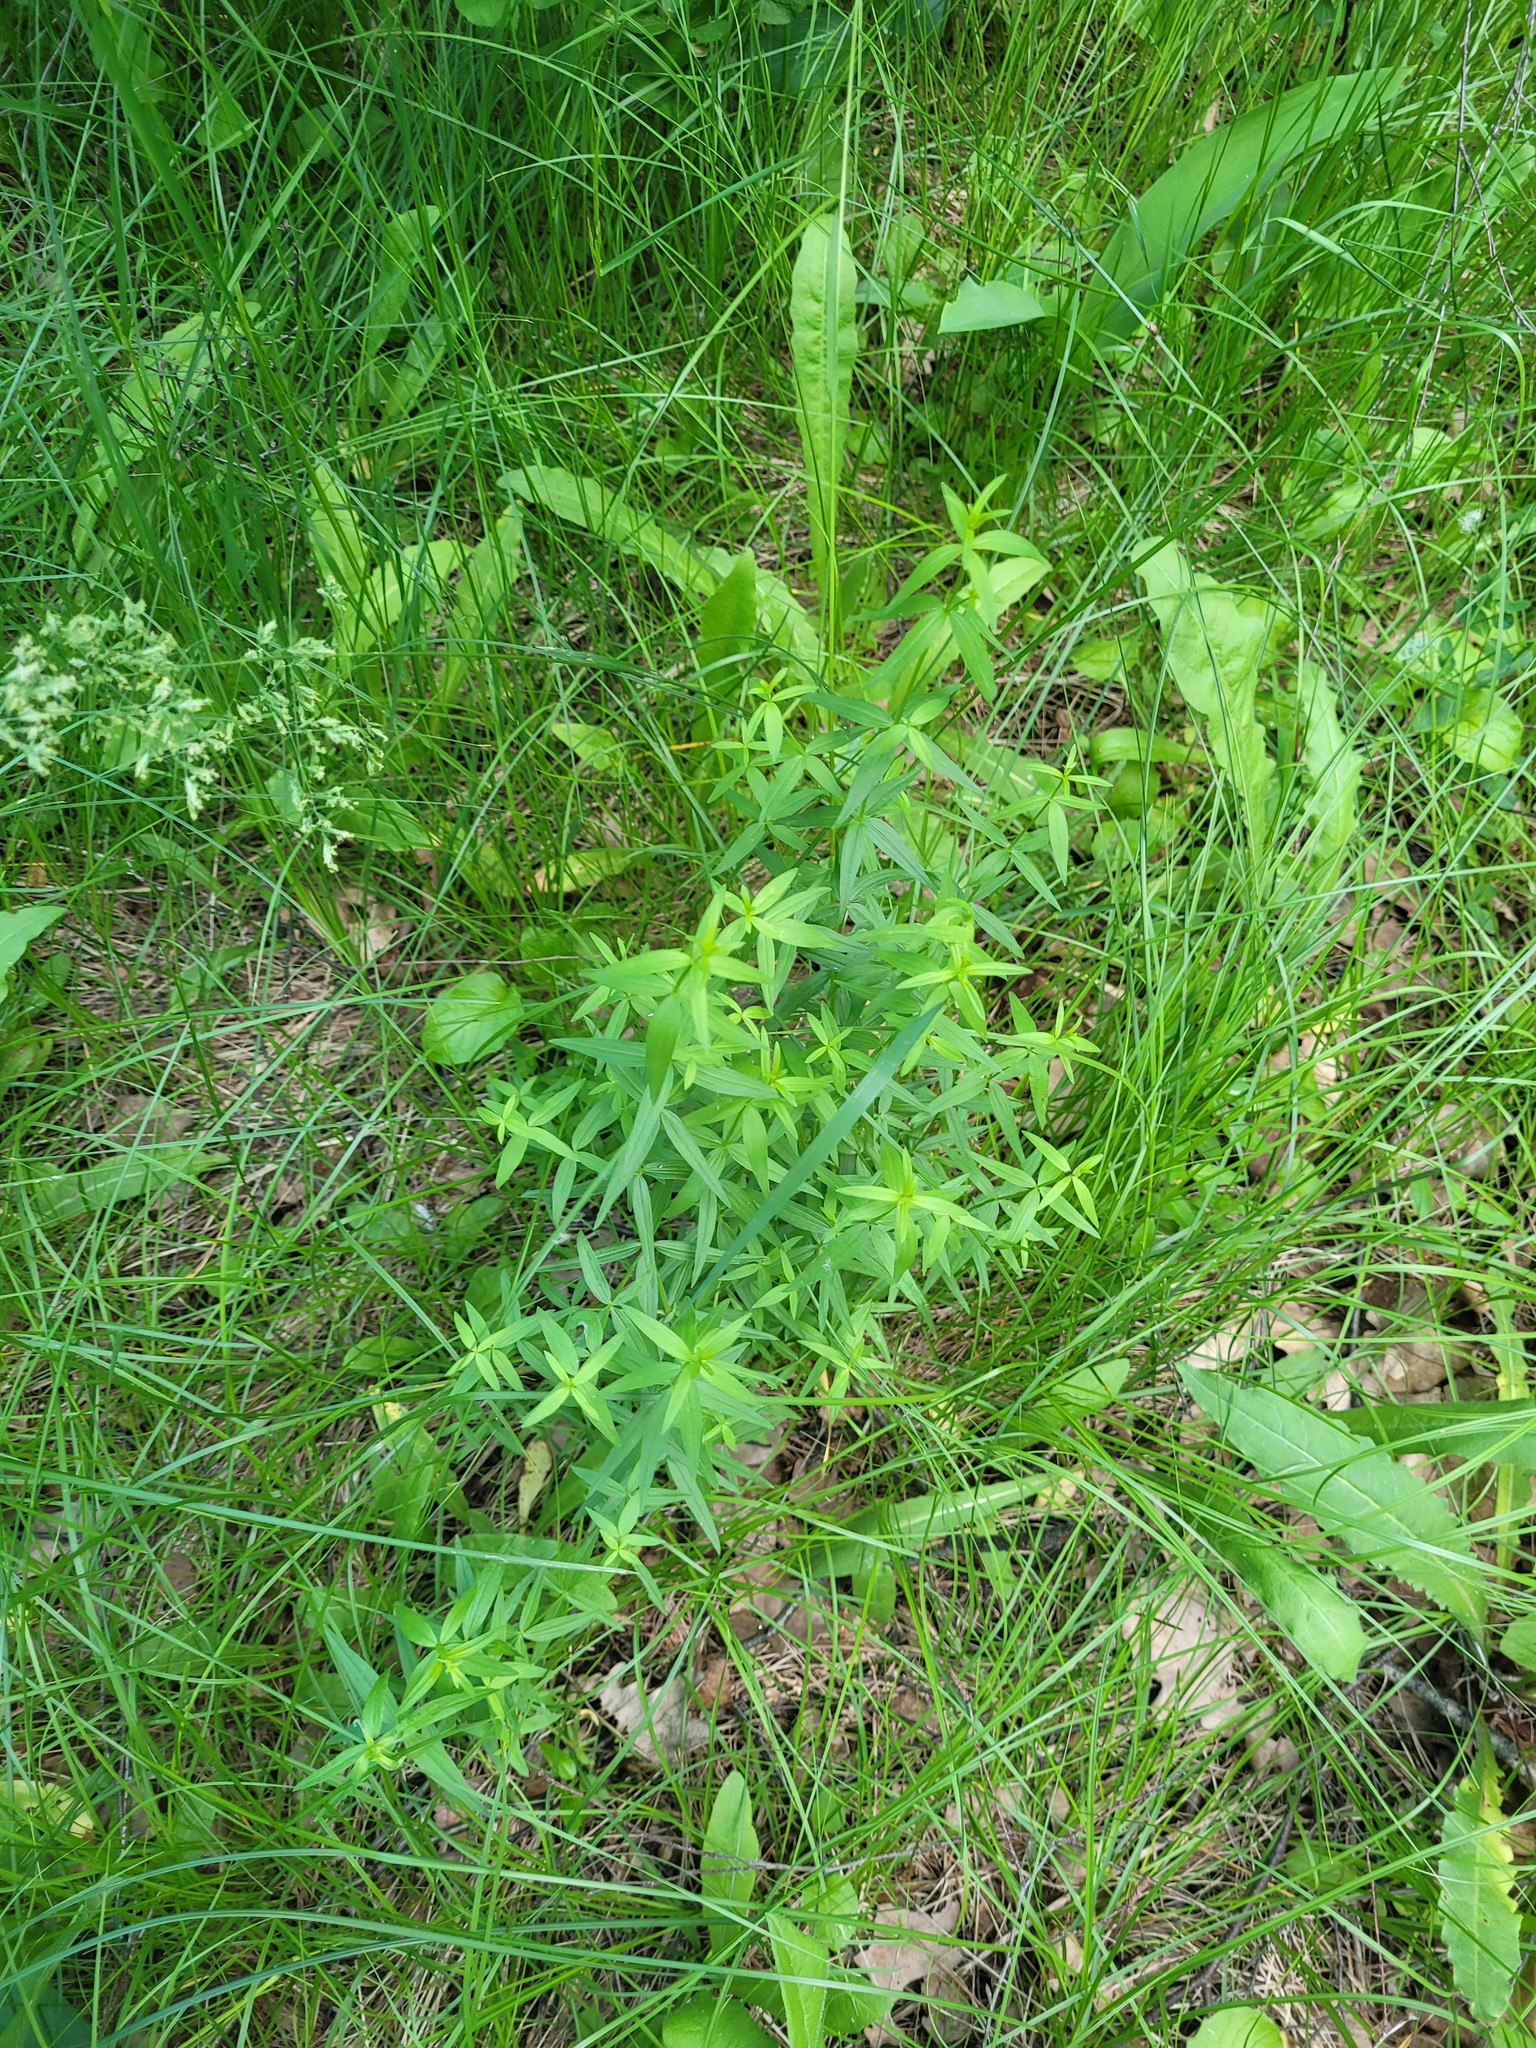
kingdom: Plantae
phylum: Tracheophyta
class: Magnoliopsida
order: Gentianales
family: Rubiaceae
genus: Galium
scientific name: Galium boreale
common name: Northern bedstraw
